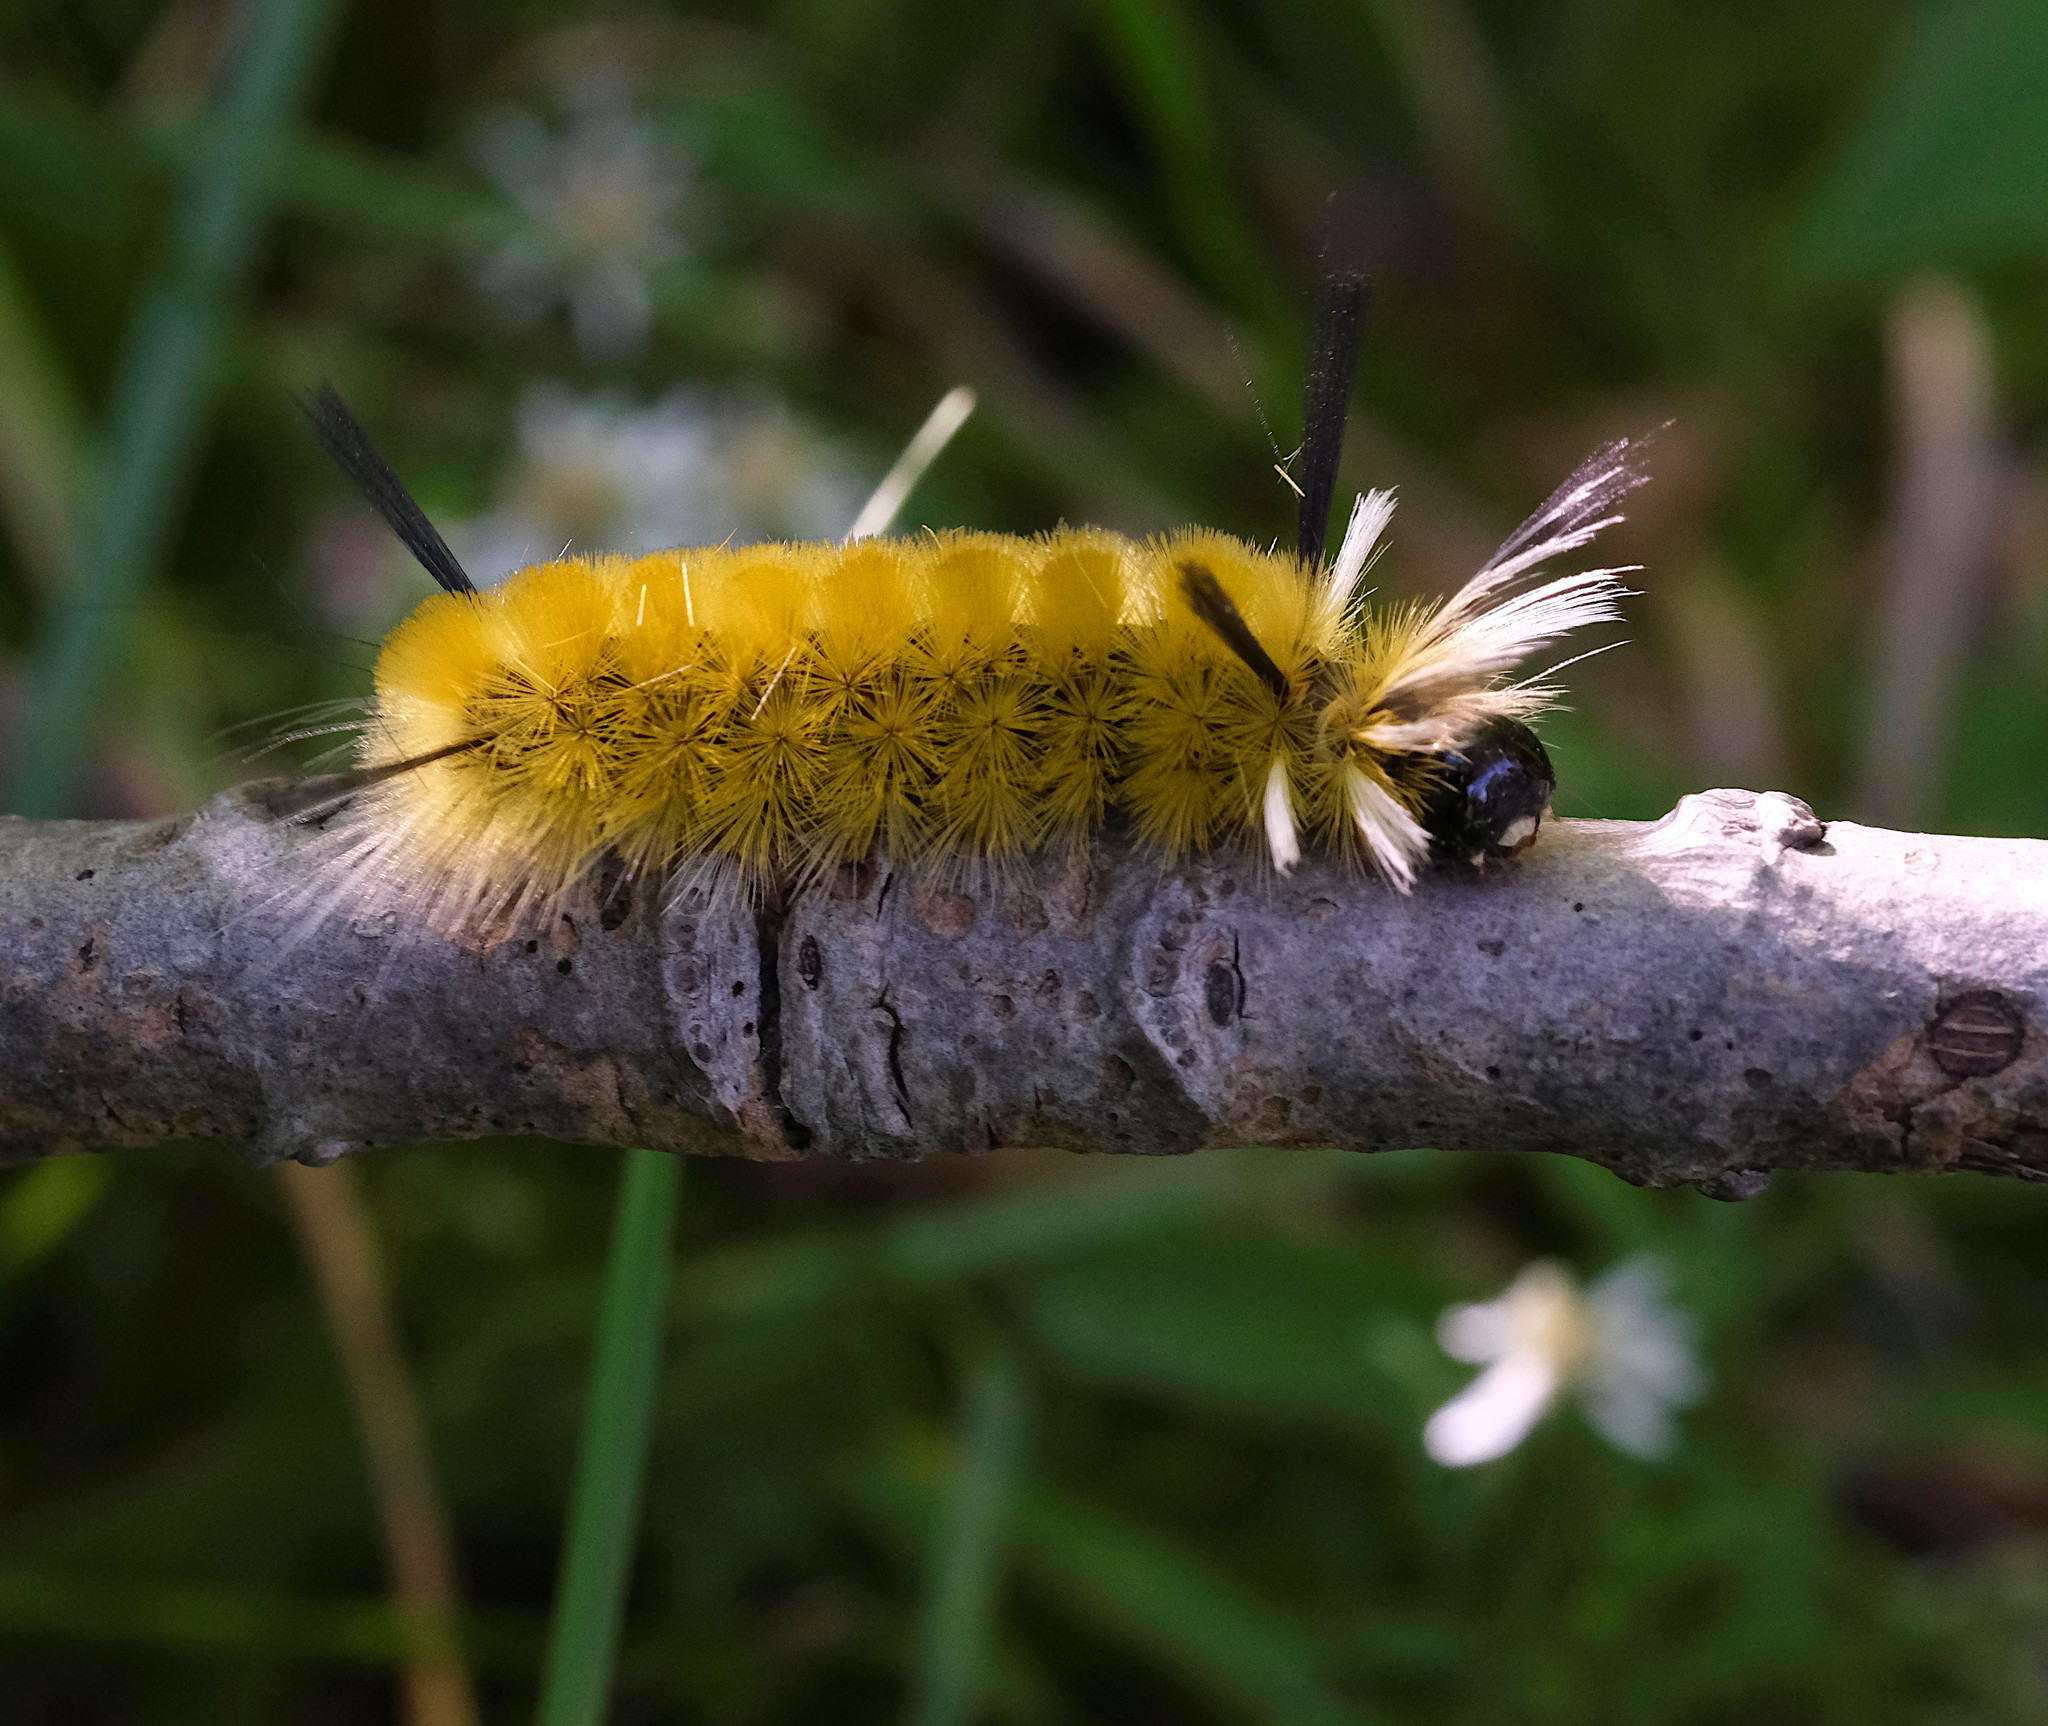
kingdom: Animalia
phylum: Arthropoda
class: Insecta
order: Lepidoptera
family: Erebidae
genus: Halysidota
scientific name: Halysidota tessellaris
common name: Banded tussock moth
